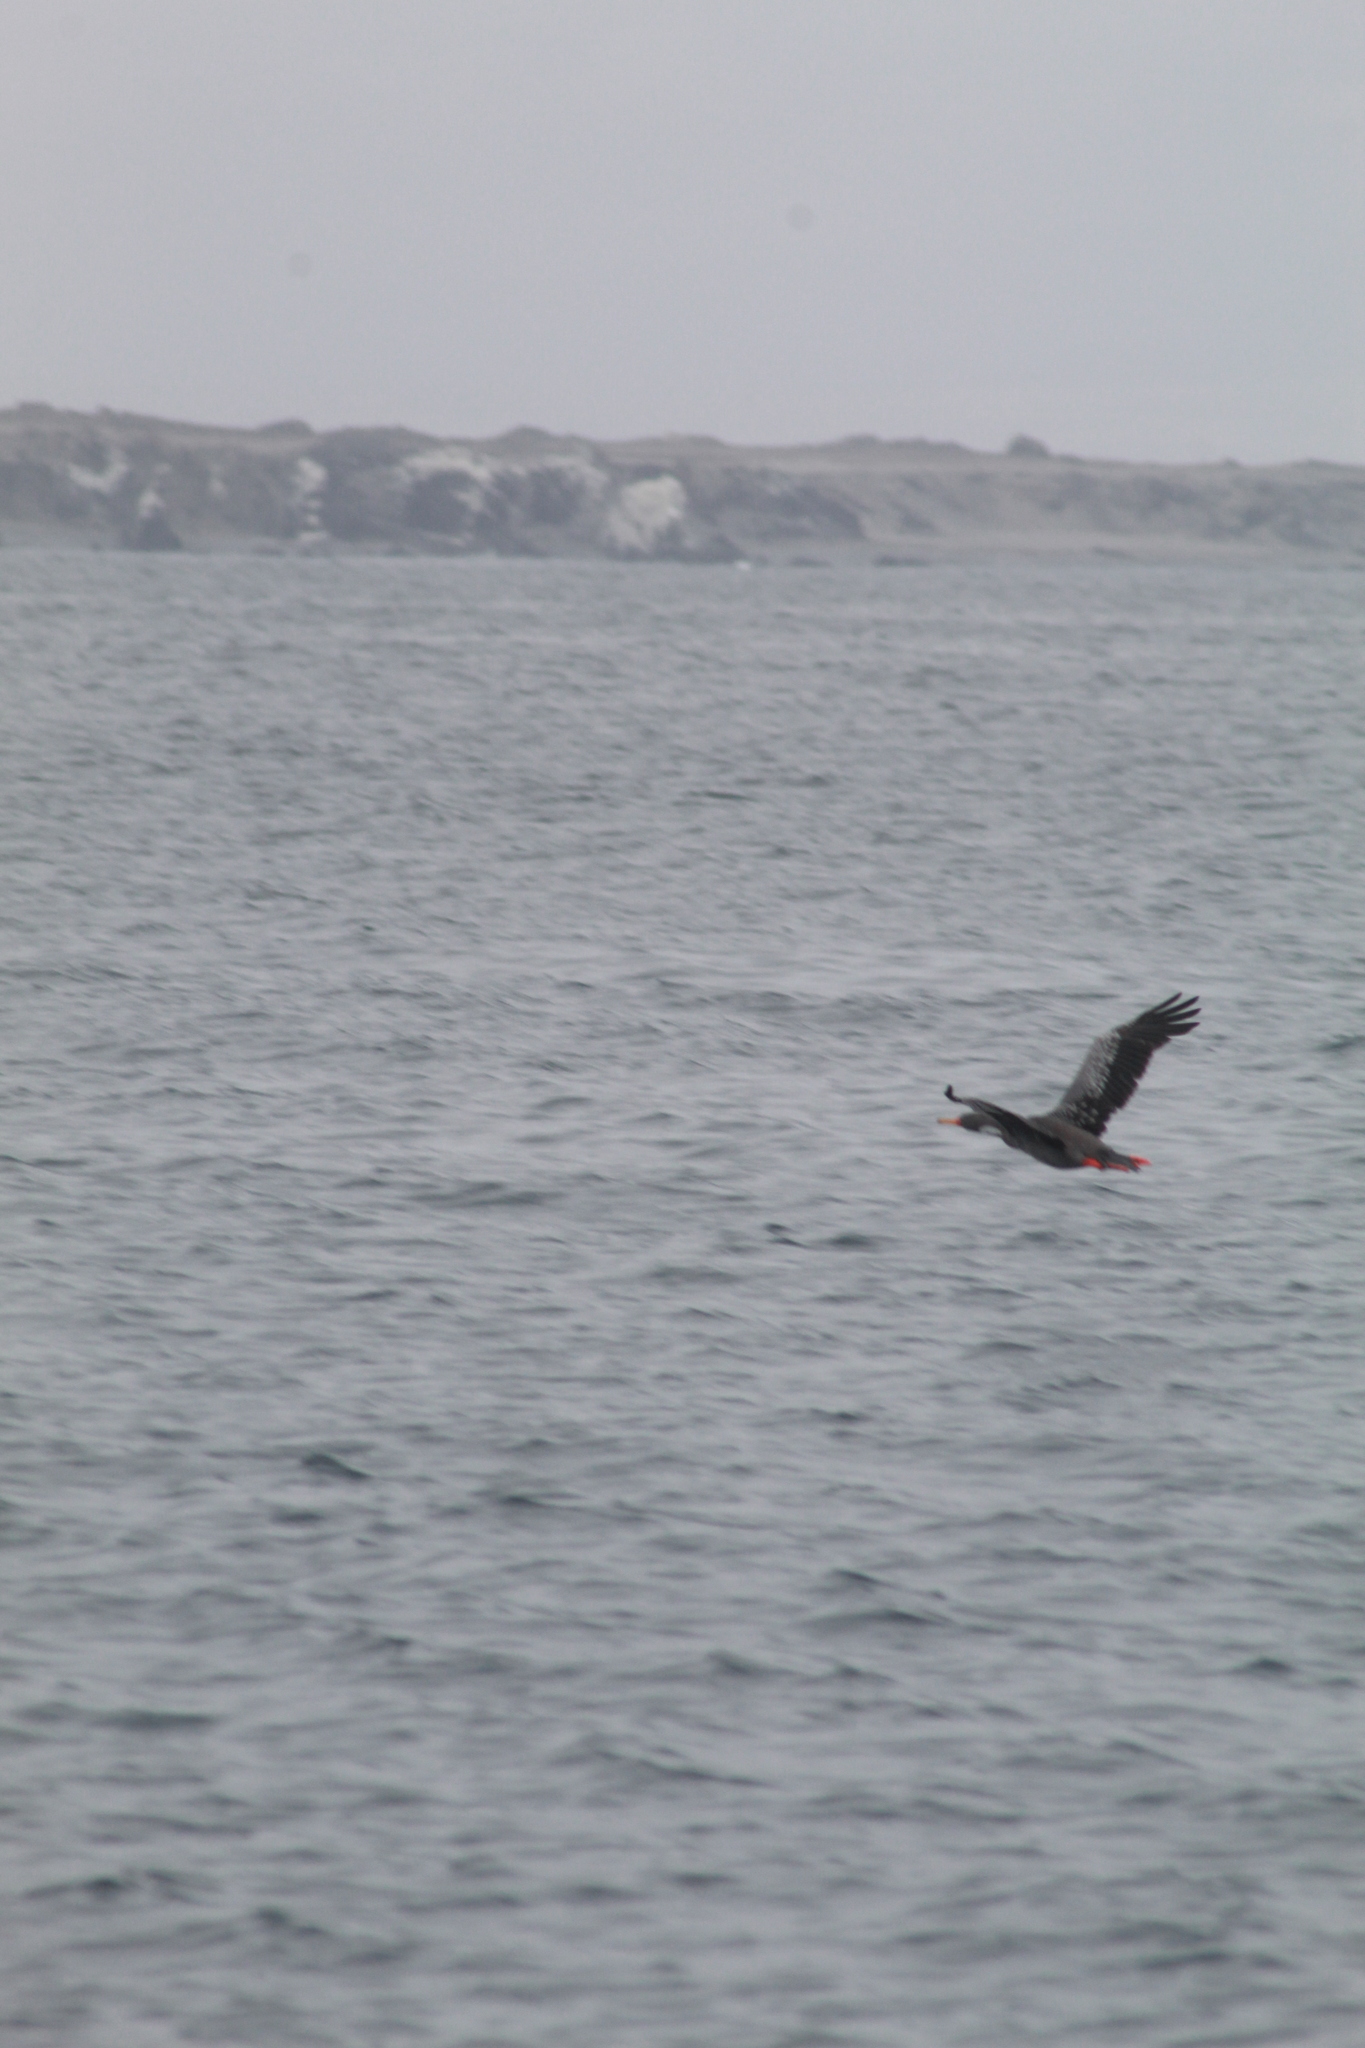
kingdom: Animalia
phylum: Chordata
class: Aves
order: Suliformes
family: Phalacrocoracidae
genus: Phalacrocorax
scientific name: Phalacrocorax gaimardi
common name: Red-legged cormorant
